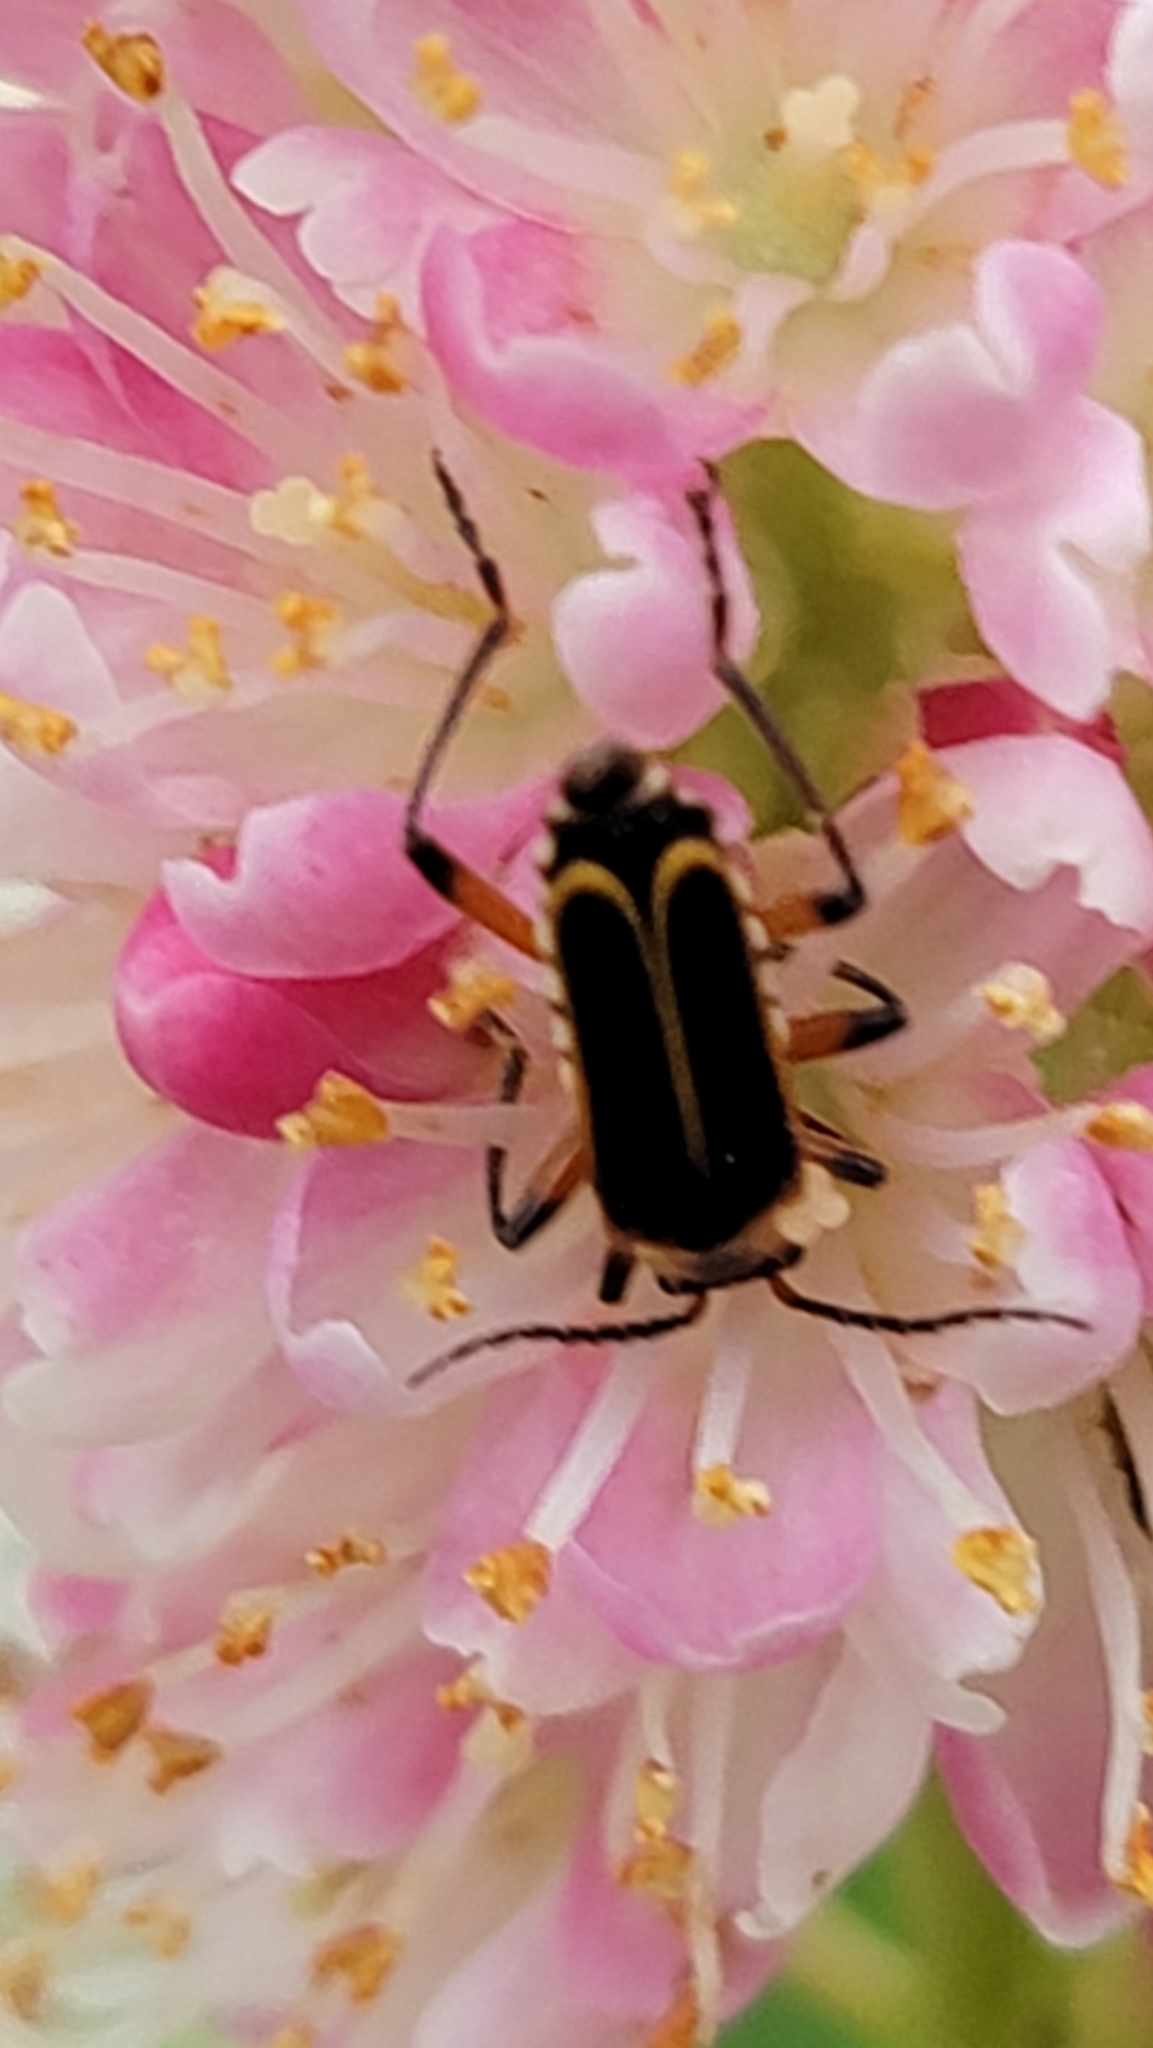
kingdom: Animalia
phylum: Arthropoda
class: Insecta
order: Coleoptera
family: Cantharidae
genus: Chauliognathus
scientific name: Chauliognathus marginatus
